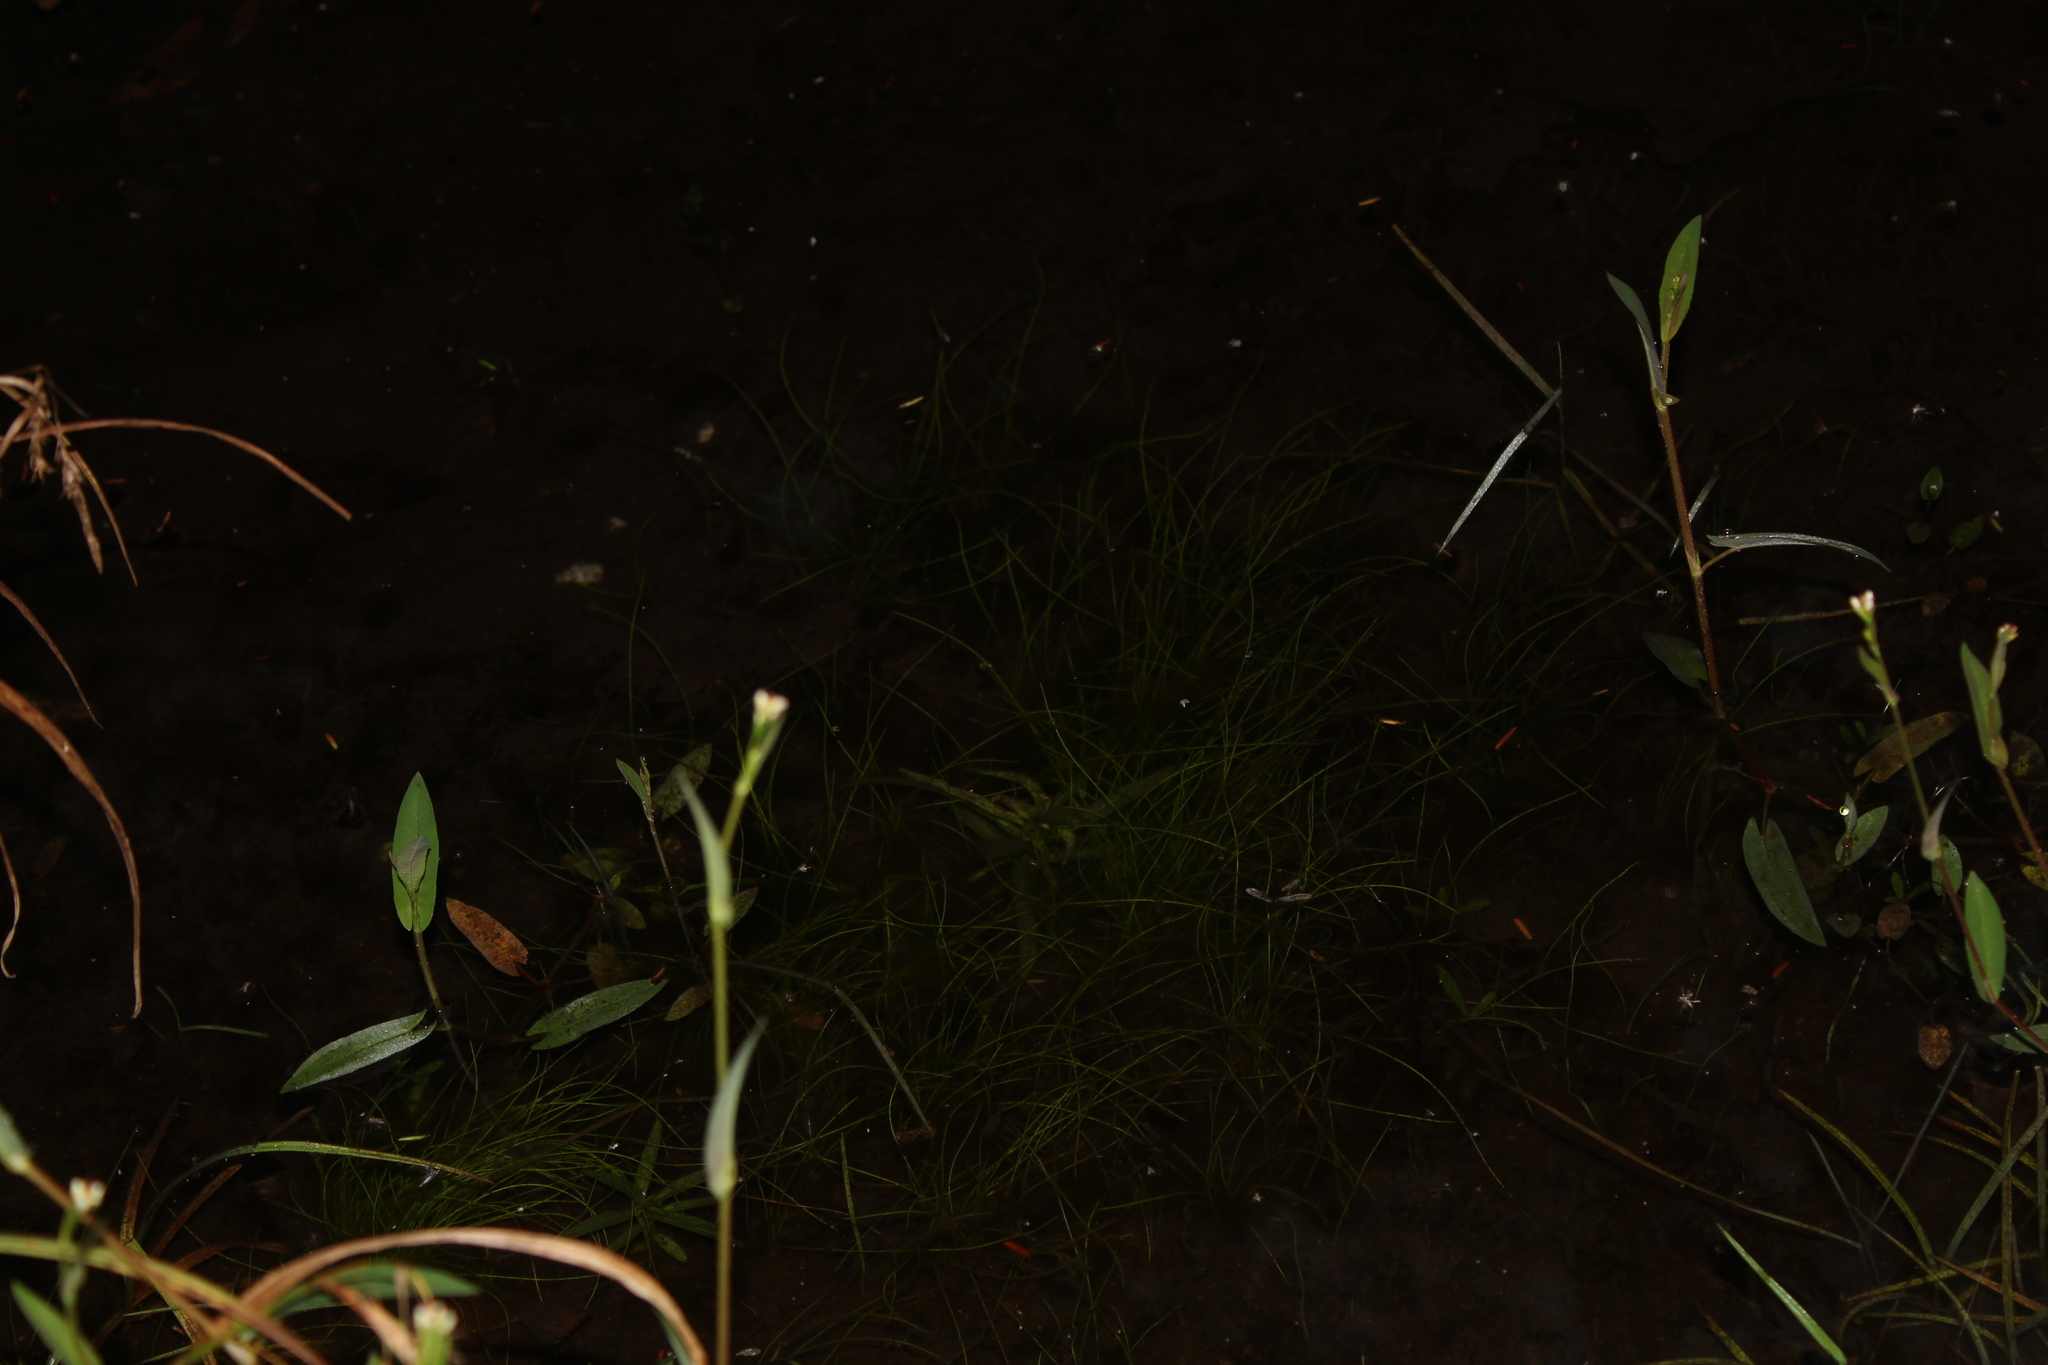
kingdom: Plantae
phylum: Tracheophyta
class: Magnoliopsida
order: Caryophyllales
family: Polygonaceae
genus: Persicaria
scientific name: Persicaria sagittata
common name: American tearthumb
